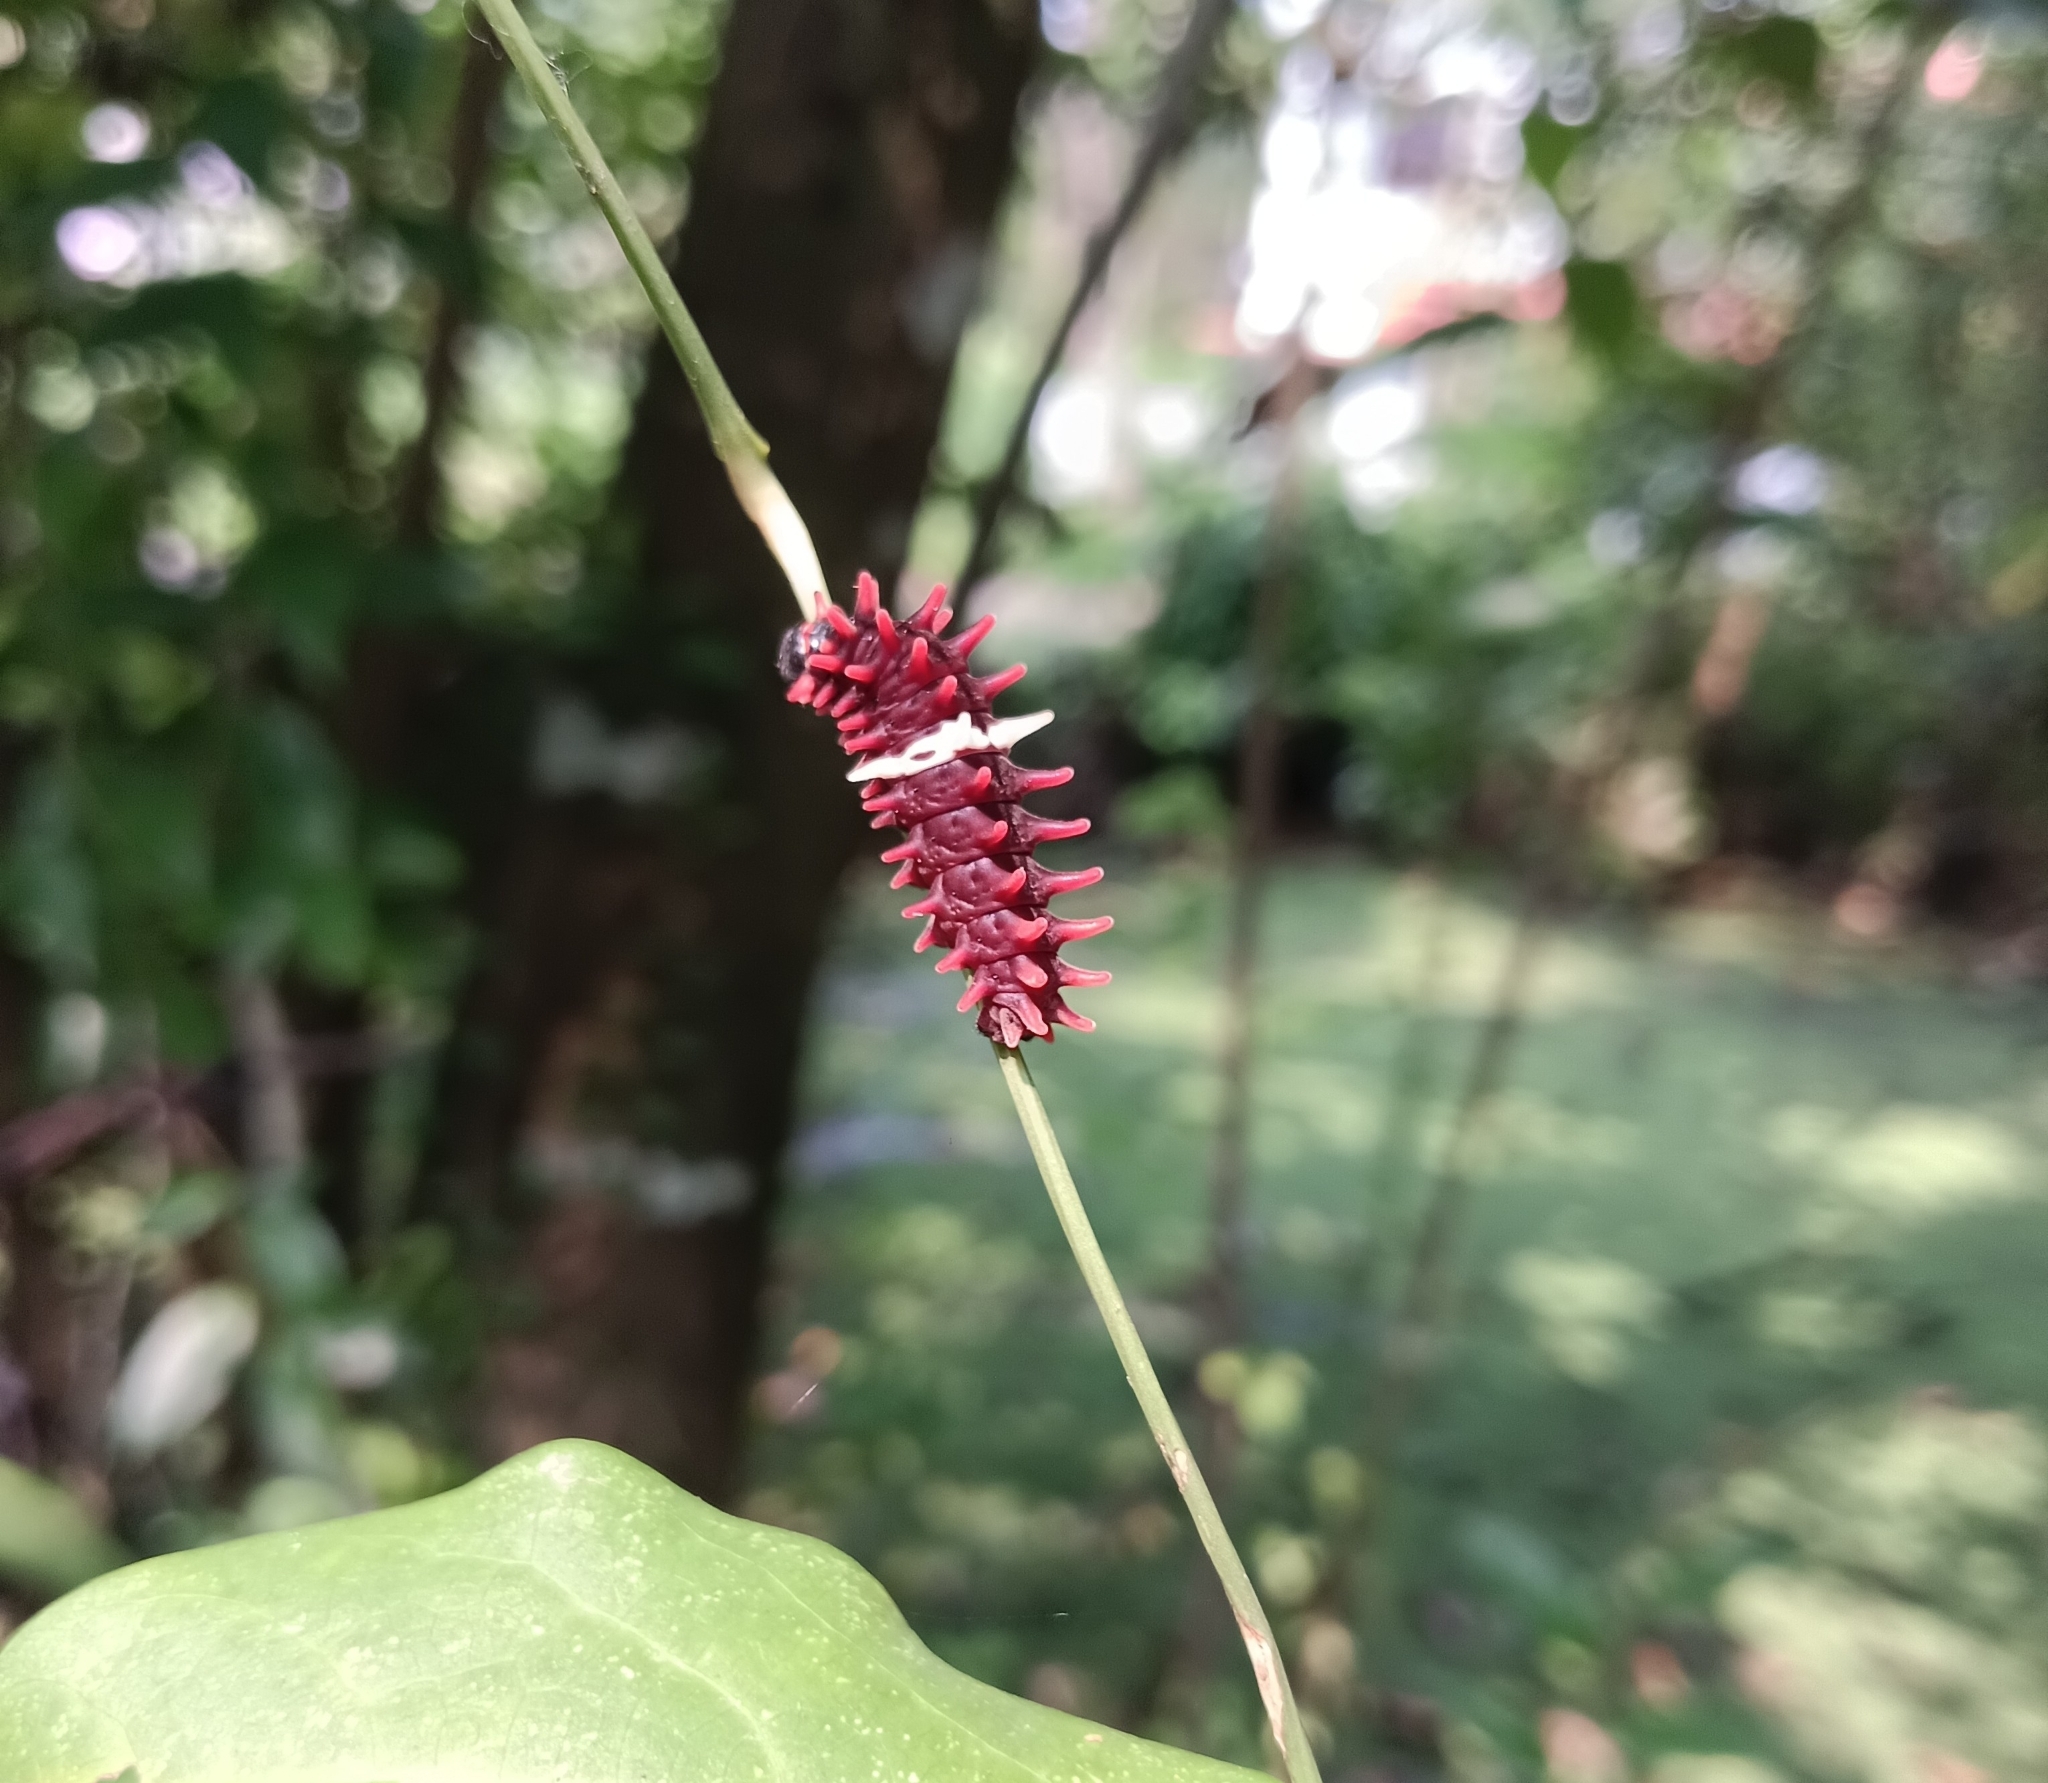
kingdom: Animalia
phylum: Arthropoda
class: Insecta
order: Lepidoptera
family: Papilionidae
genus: Pachliopta
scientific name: Pachliopta aristolochiae
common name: Common rose
